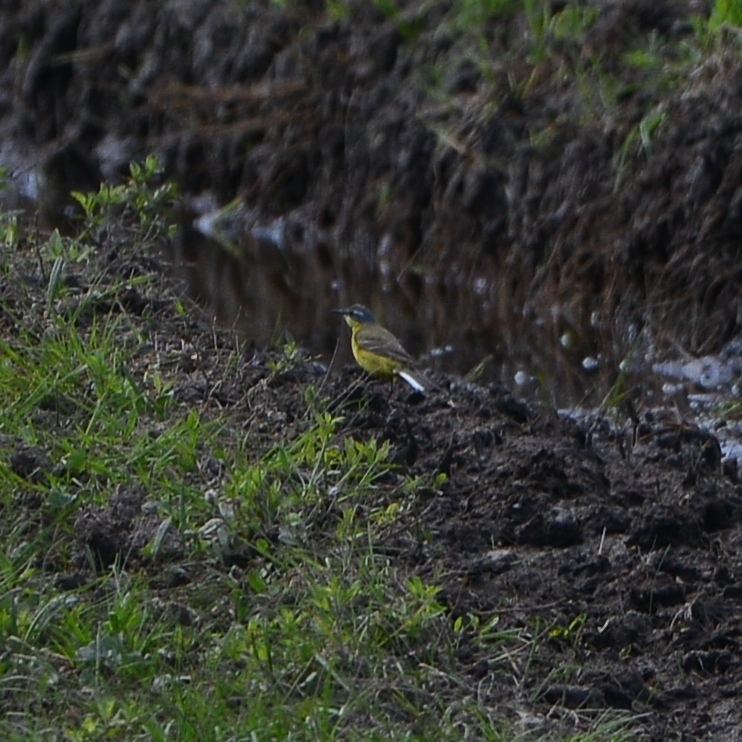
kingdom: Animalia
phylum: Chordata
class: Aves
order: Passeriformes
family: Motacillidae
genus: Motacilla
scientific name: Motacilla tschutschensis
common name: Eastern yellow wagtail
